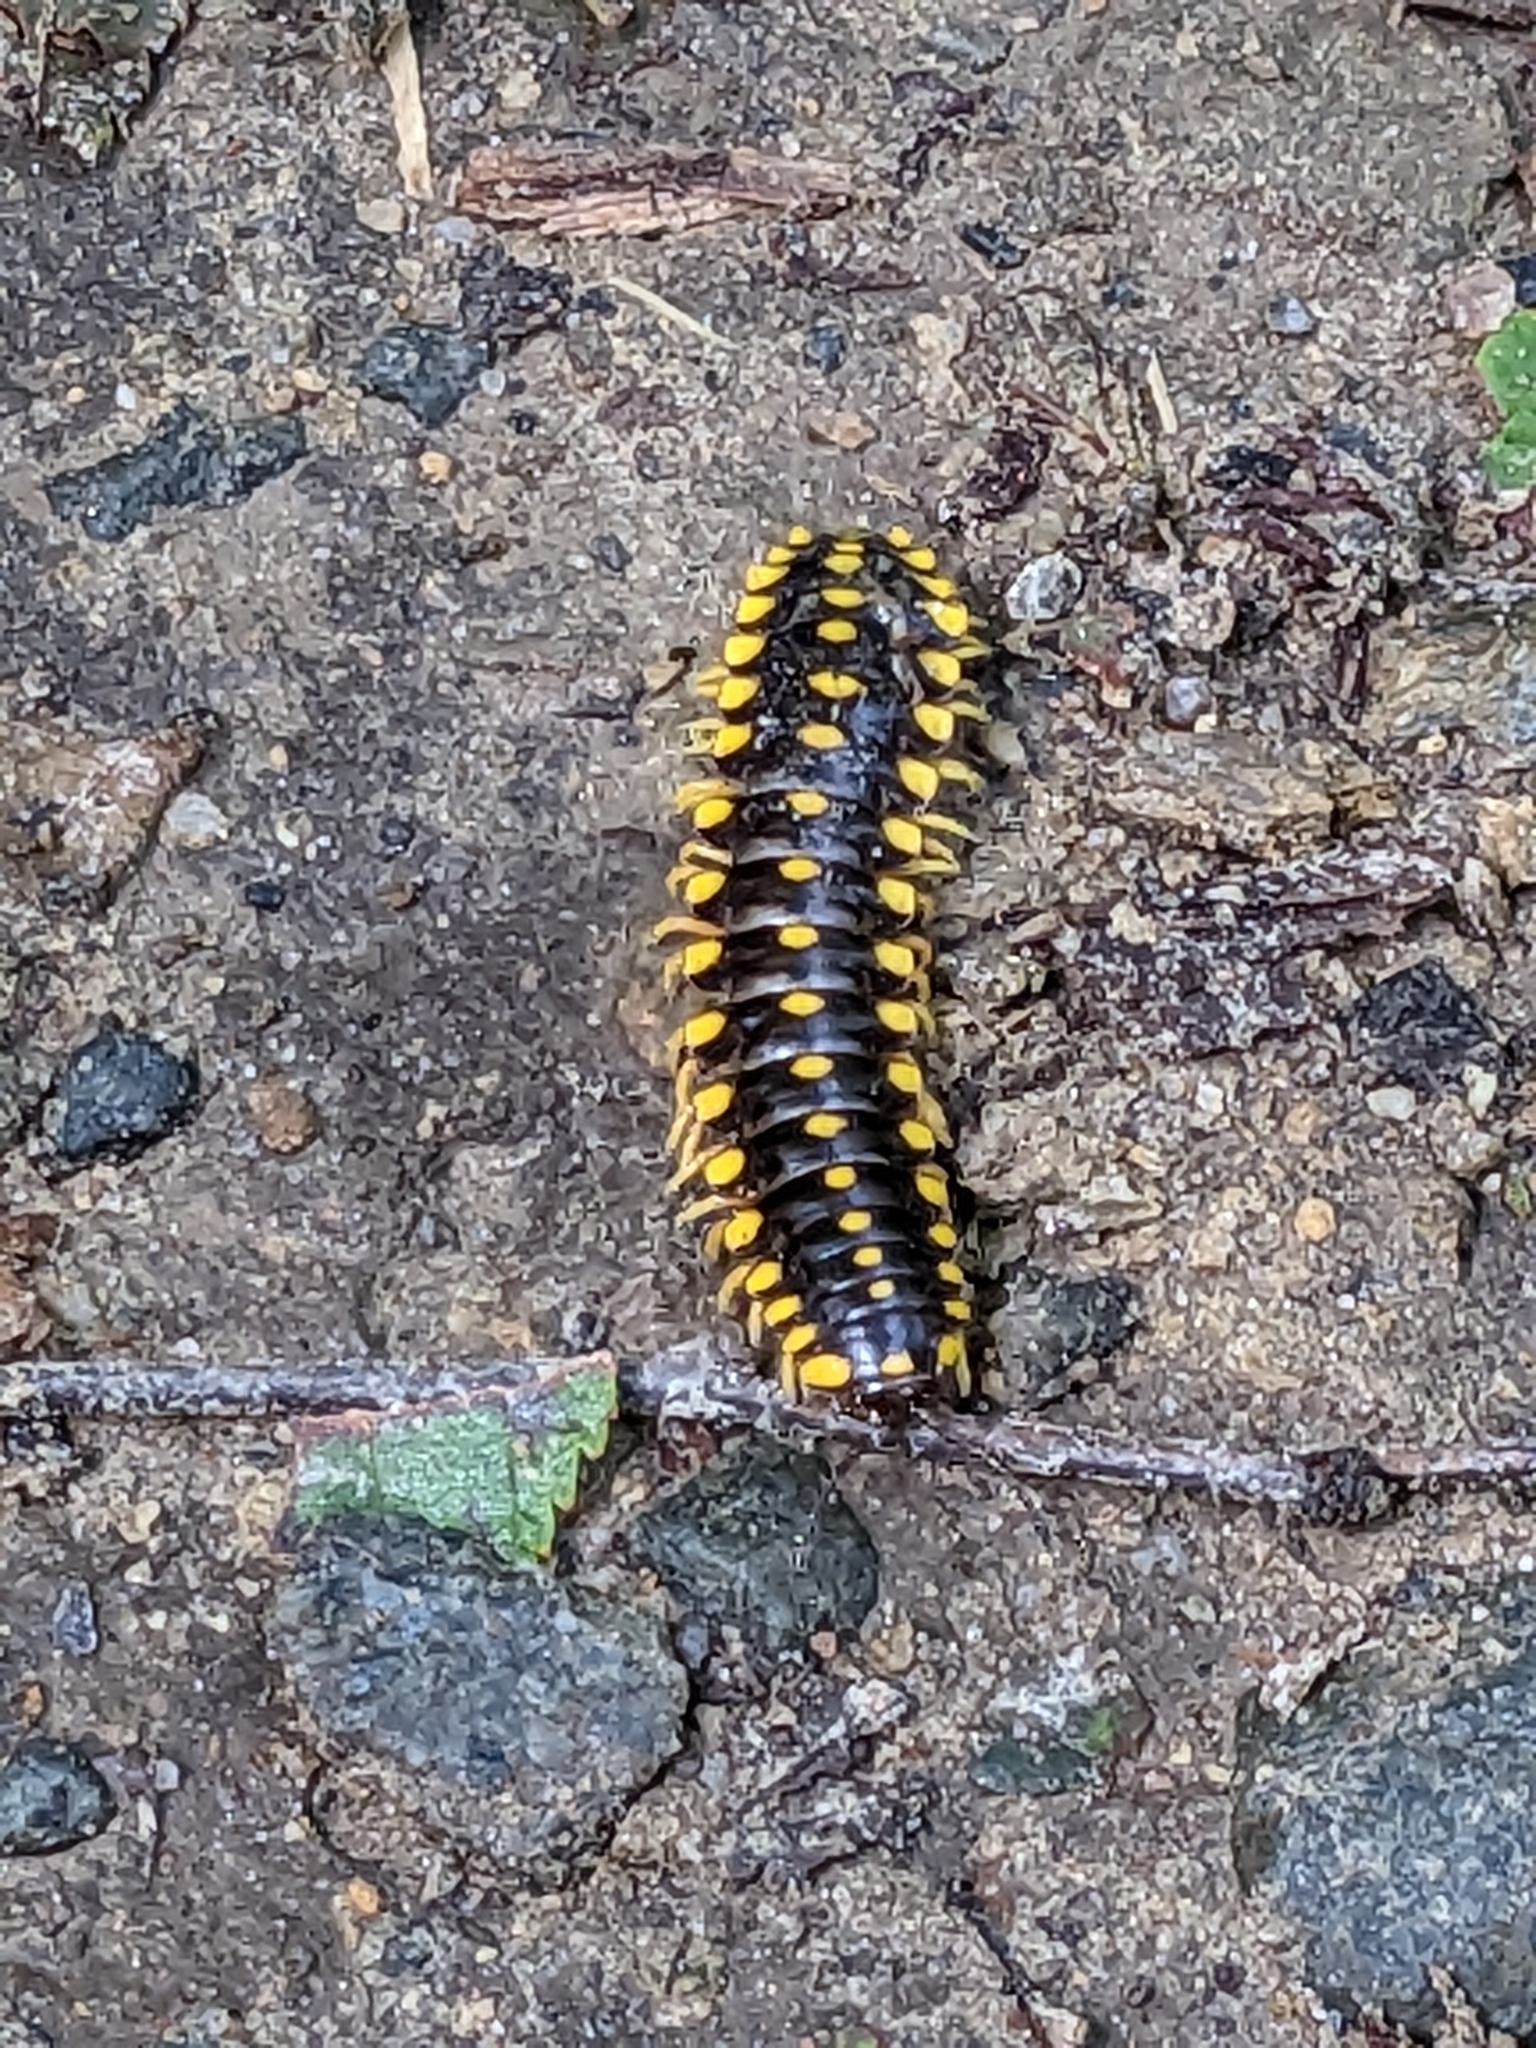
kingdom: Animalia
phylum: Arthropoda
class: Diplopoda
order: Polydesmida
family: Xystodesmidae
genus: Cherokia
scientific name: Cherokia georgiana
